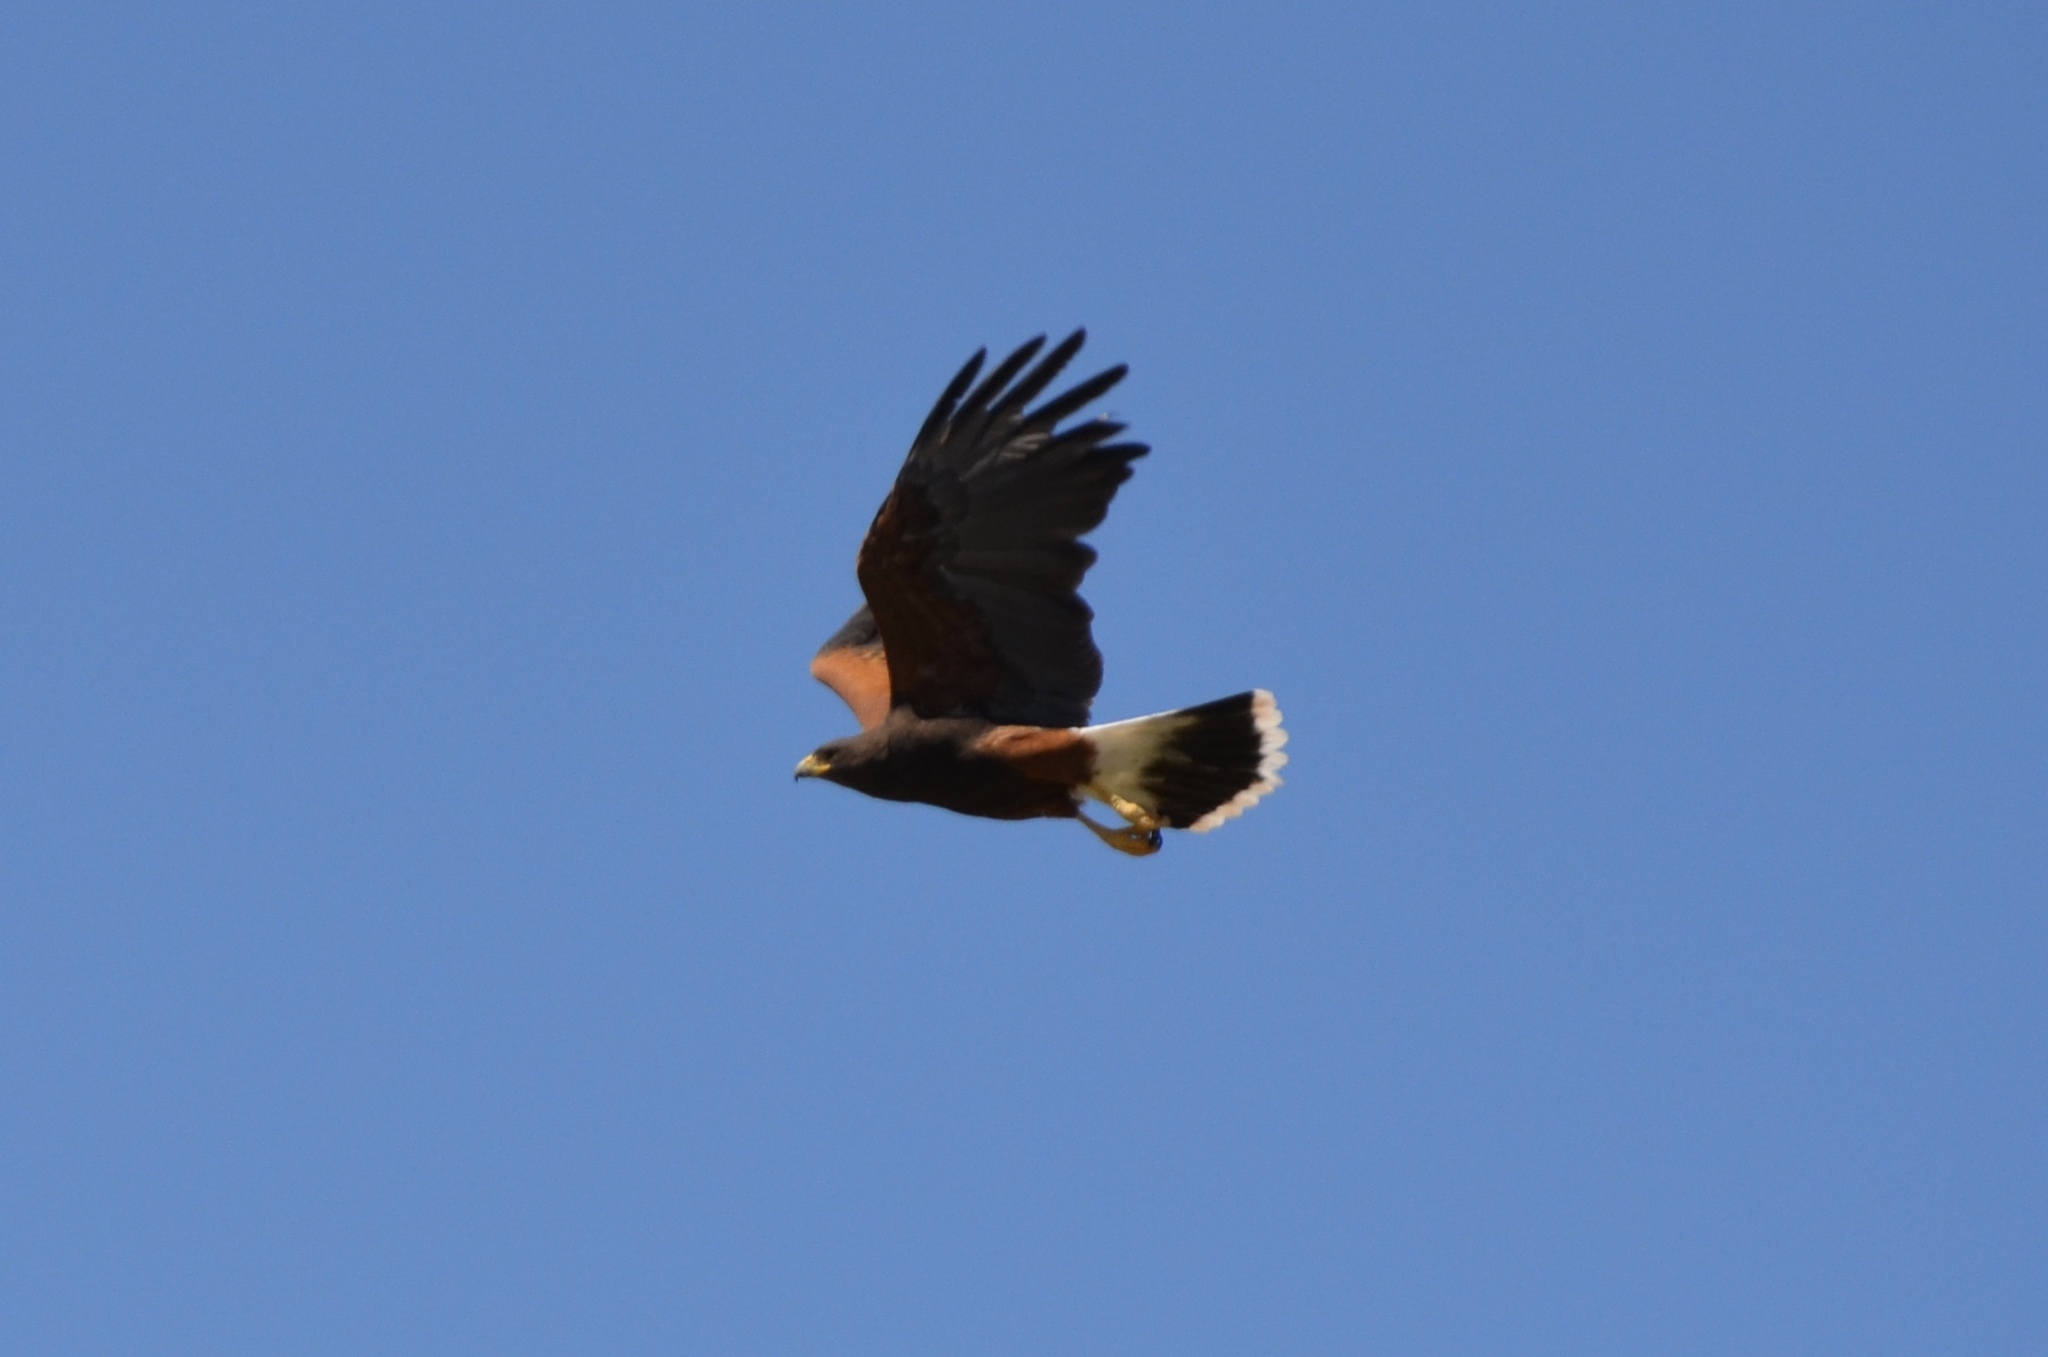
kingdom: Animalia
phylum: Chordata
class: Aves
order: Accipitriformes
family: Accipitridae
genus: Parabuteo
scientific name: Parabuteo unicinctus
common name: Harris's hawk
